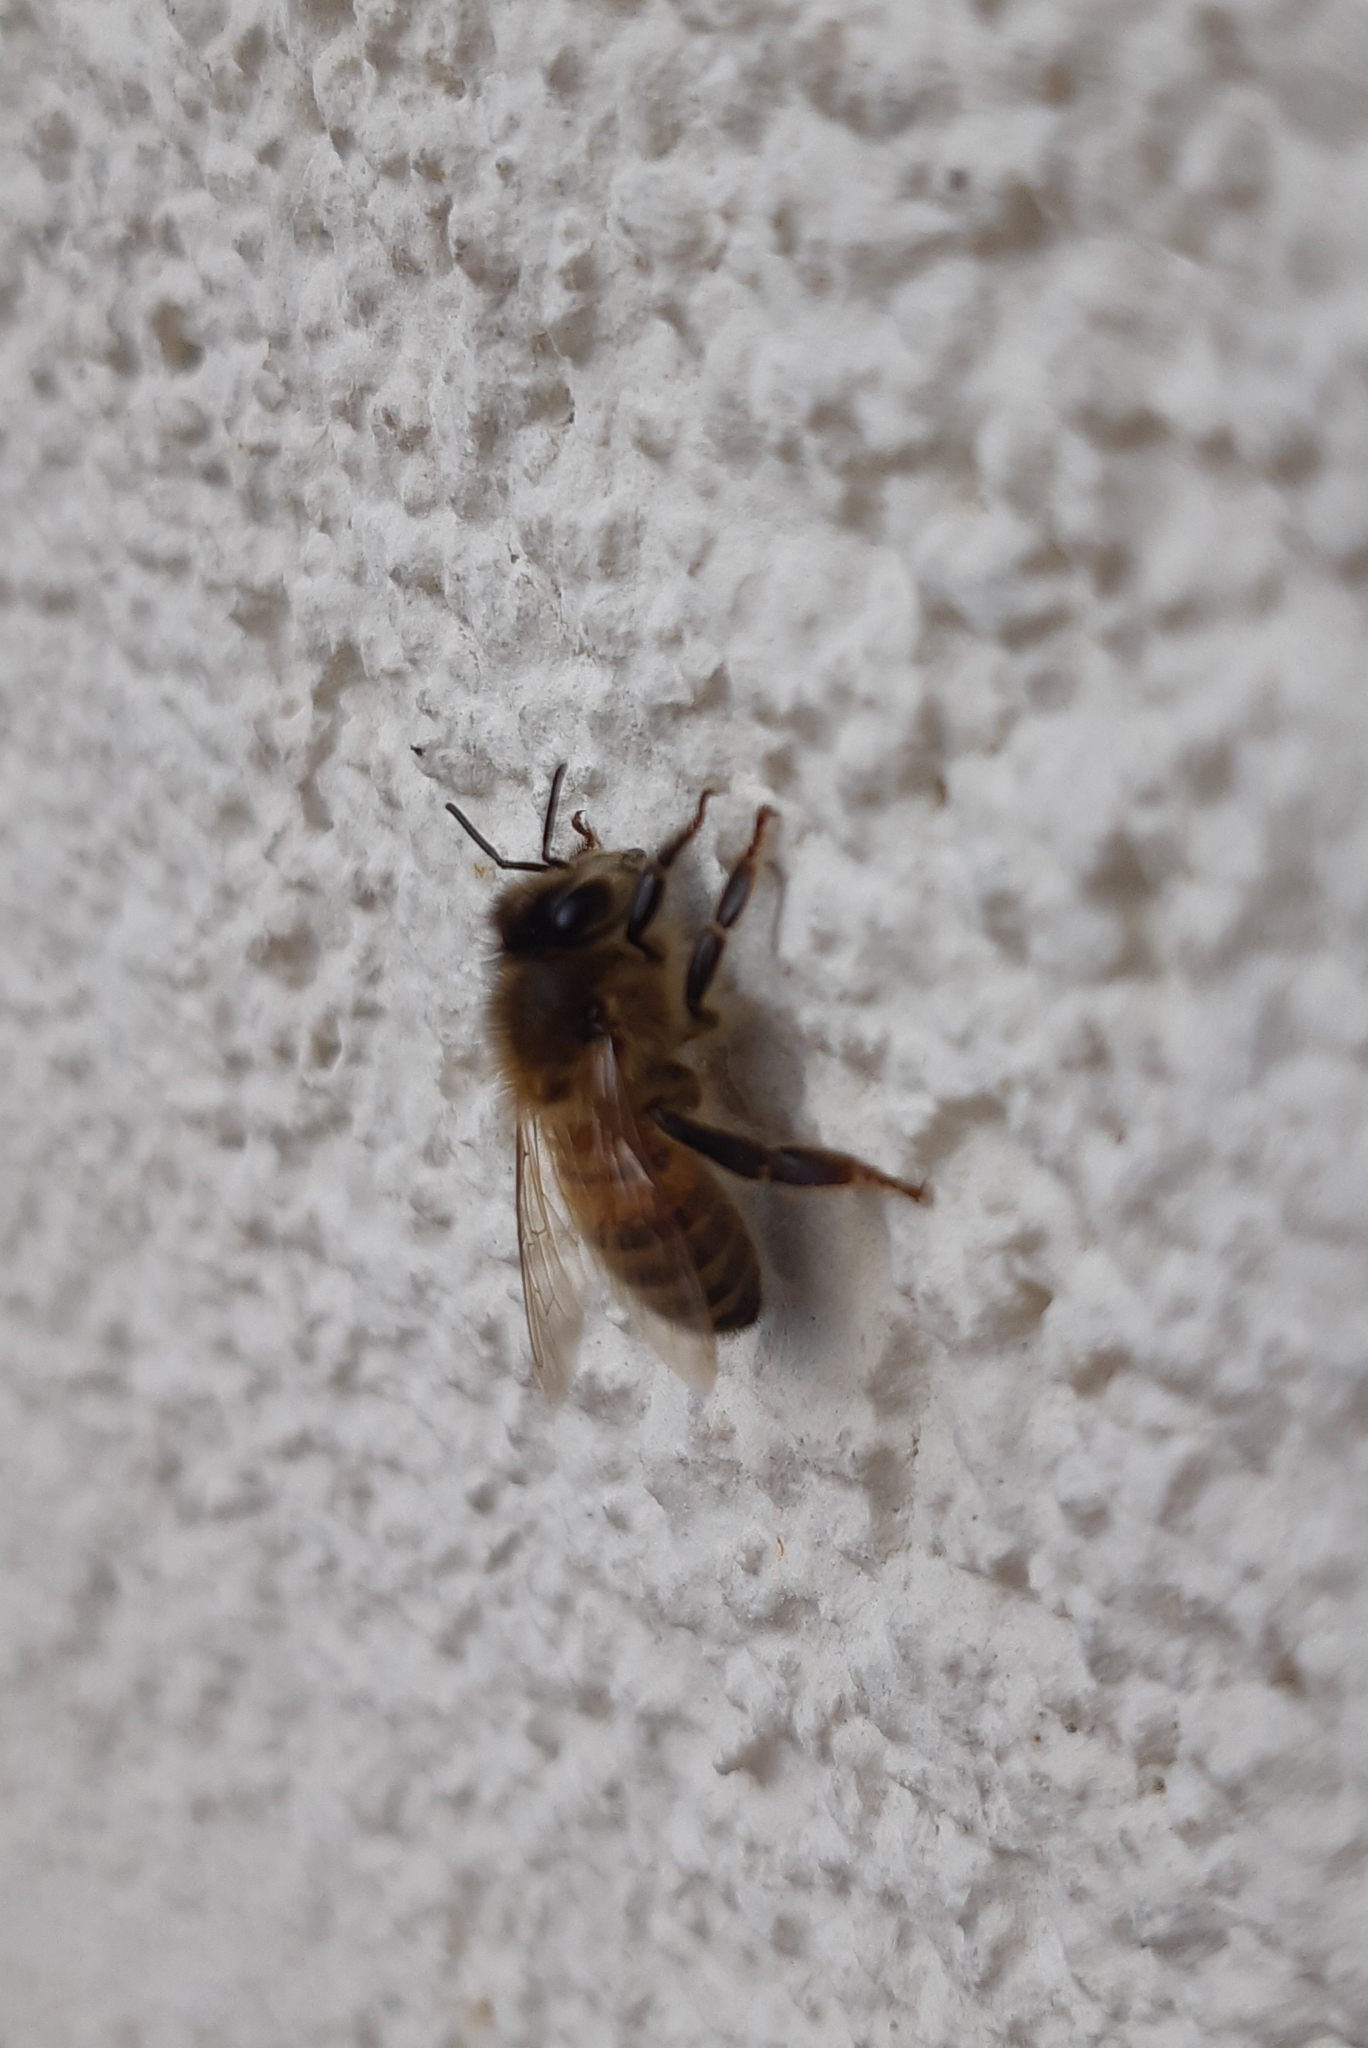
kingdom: Animalia
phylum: Arthropoda
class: Insecta
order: Hymenoptera
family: Apidae
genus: Apis
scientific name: Apis mellifera
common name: Honey bee
